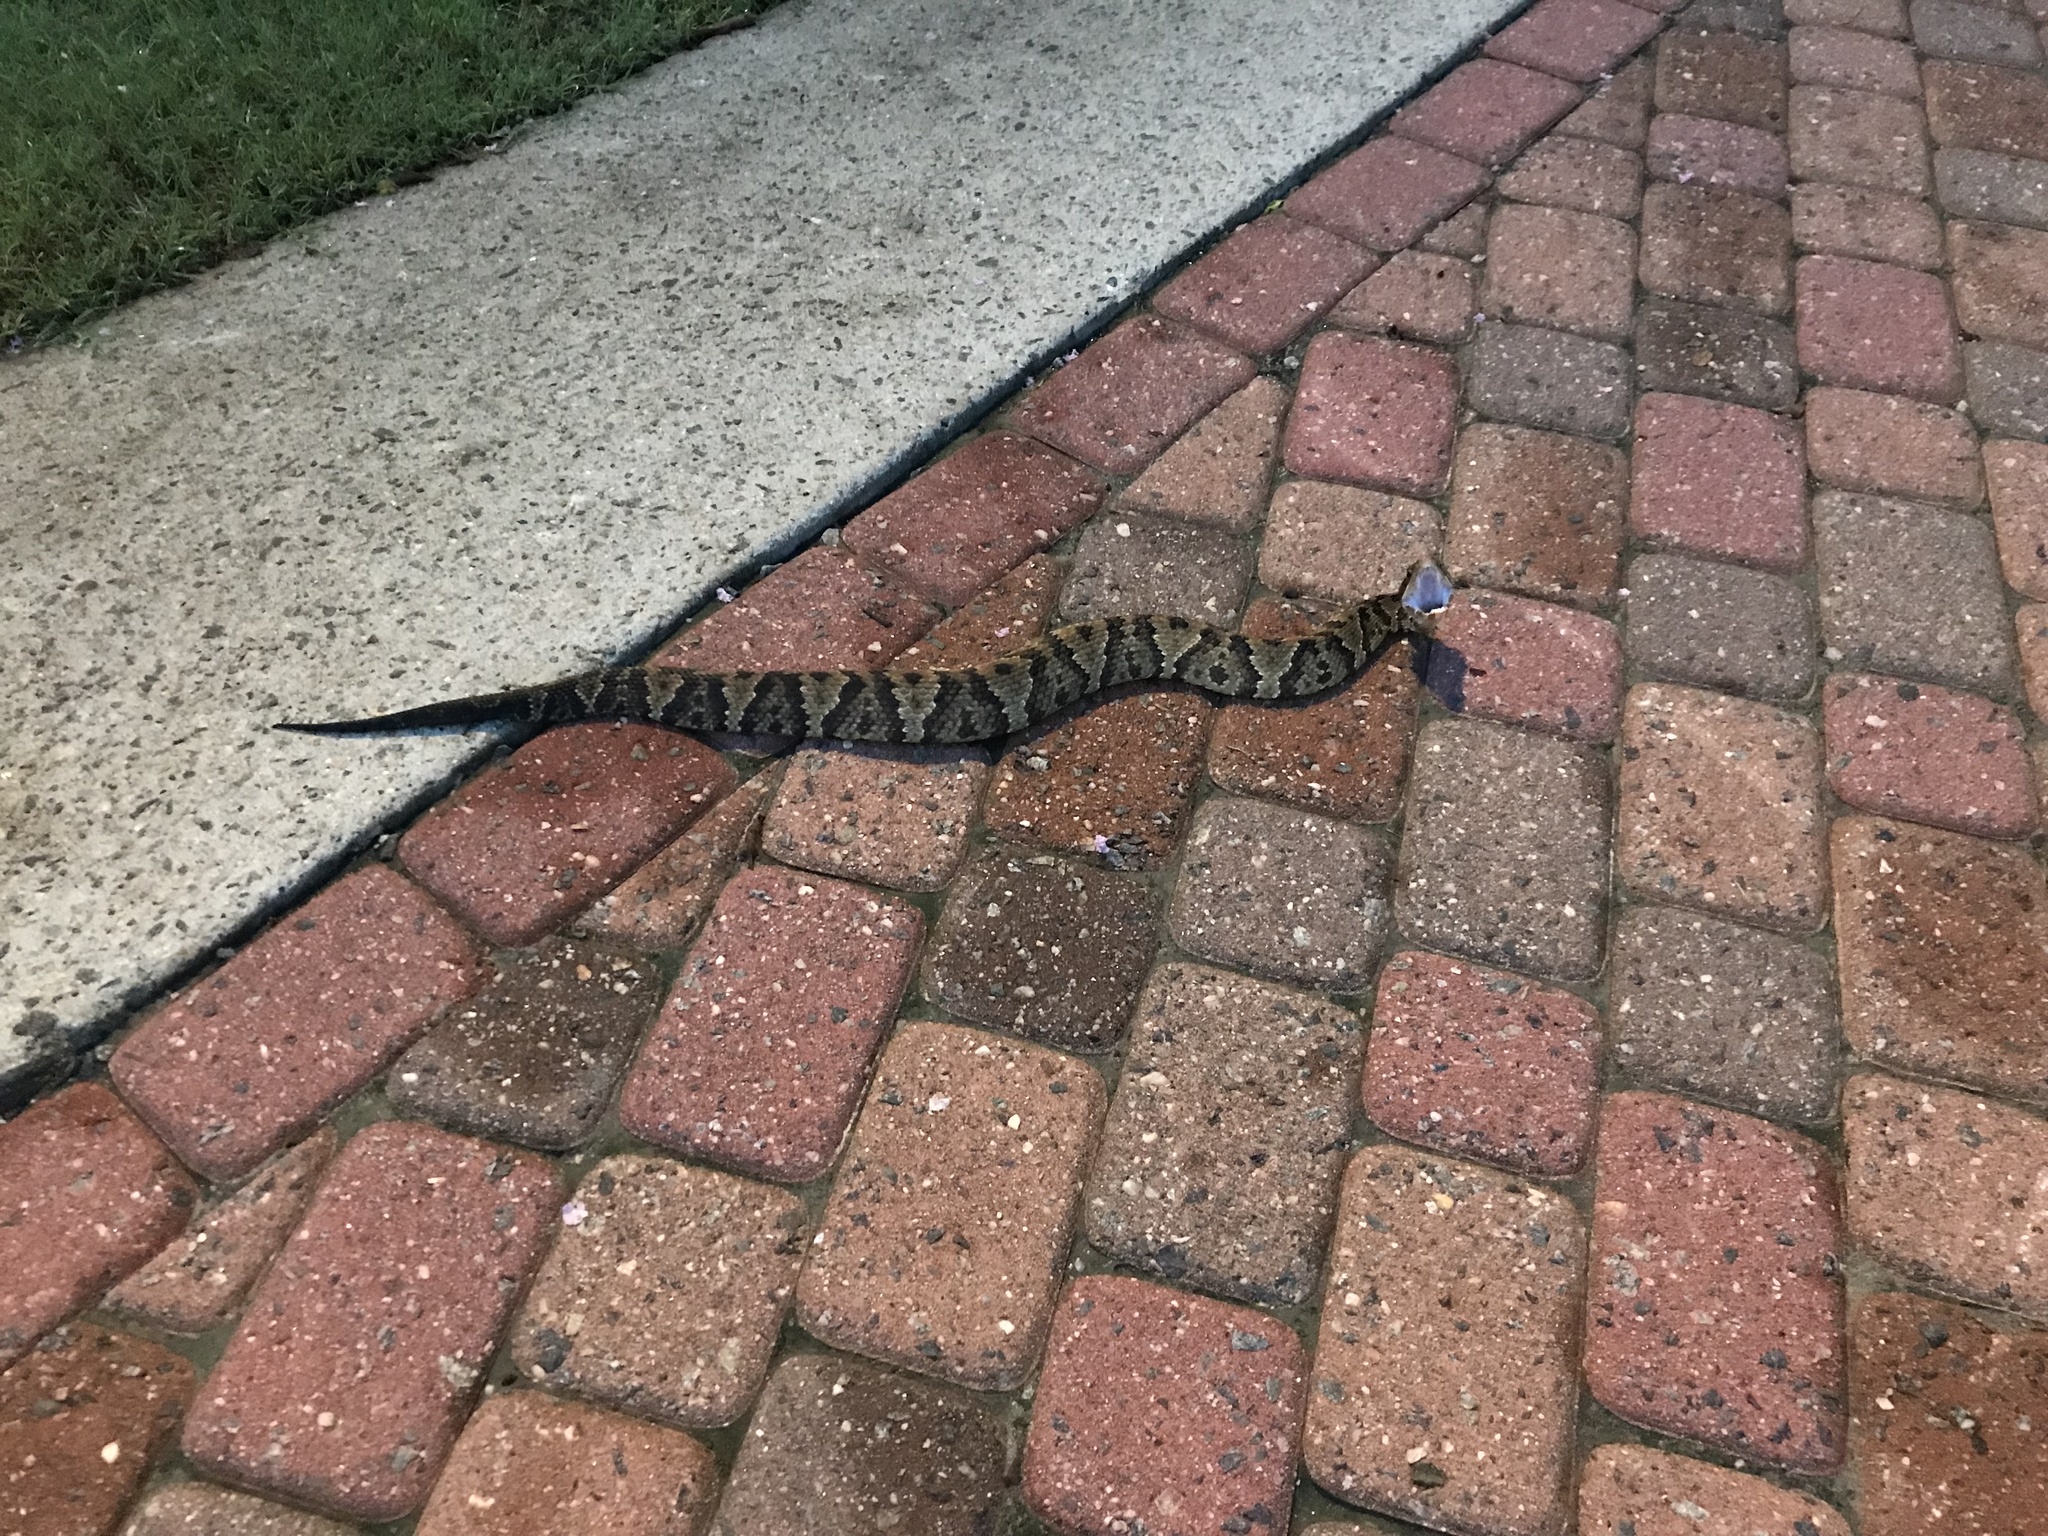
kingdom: Animalia
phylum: Chordata
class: Squamata
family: Viperidae
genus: Agkistrodon
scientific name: Agkistrodon piscivorus
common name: Cottonmouth
